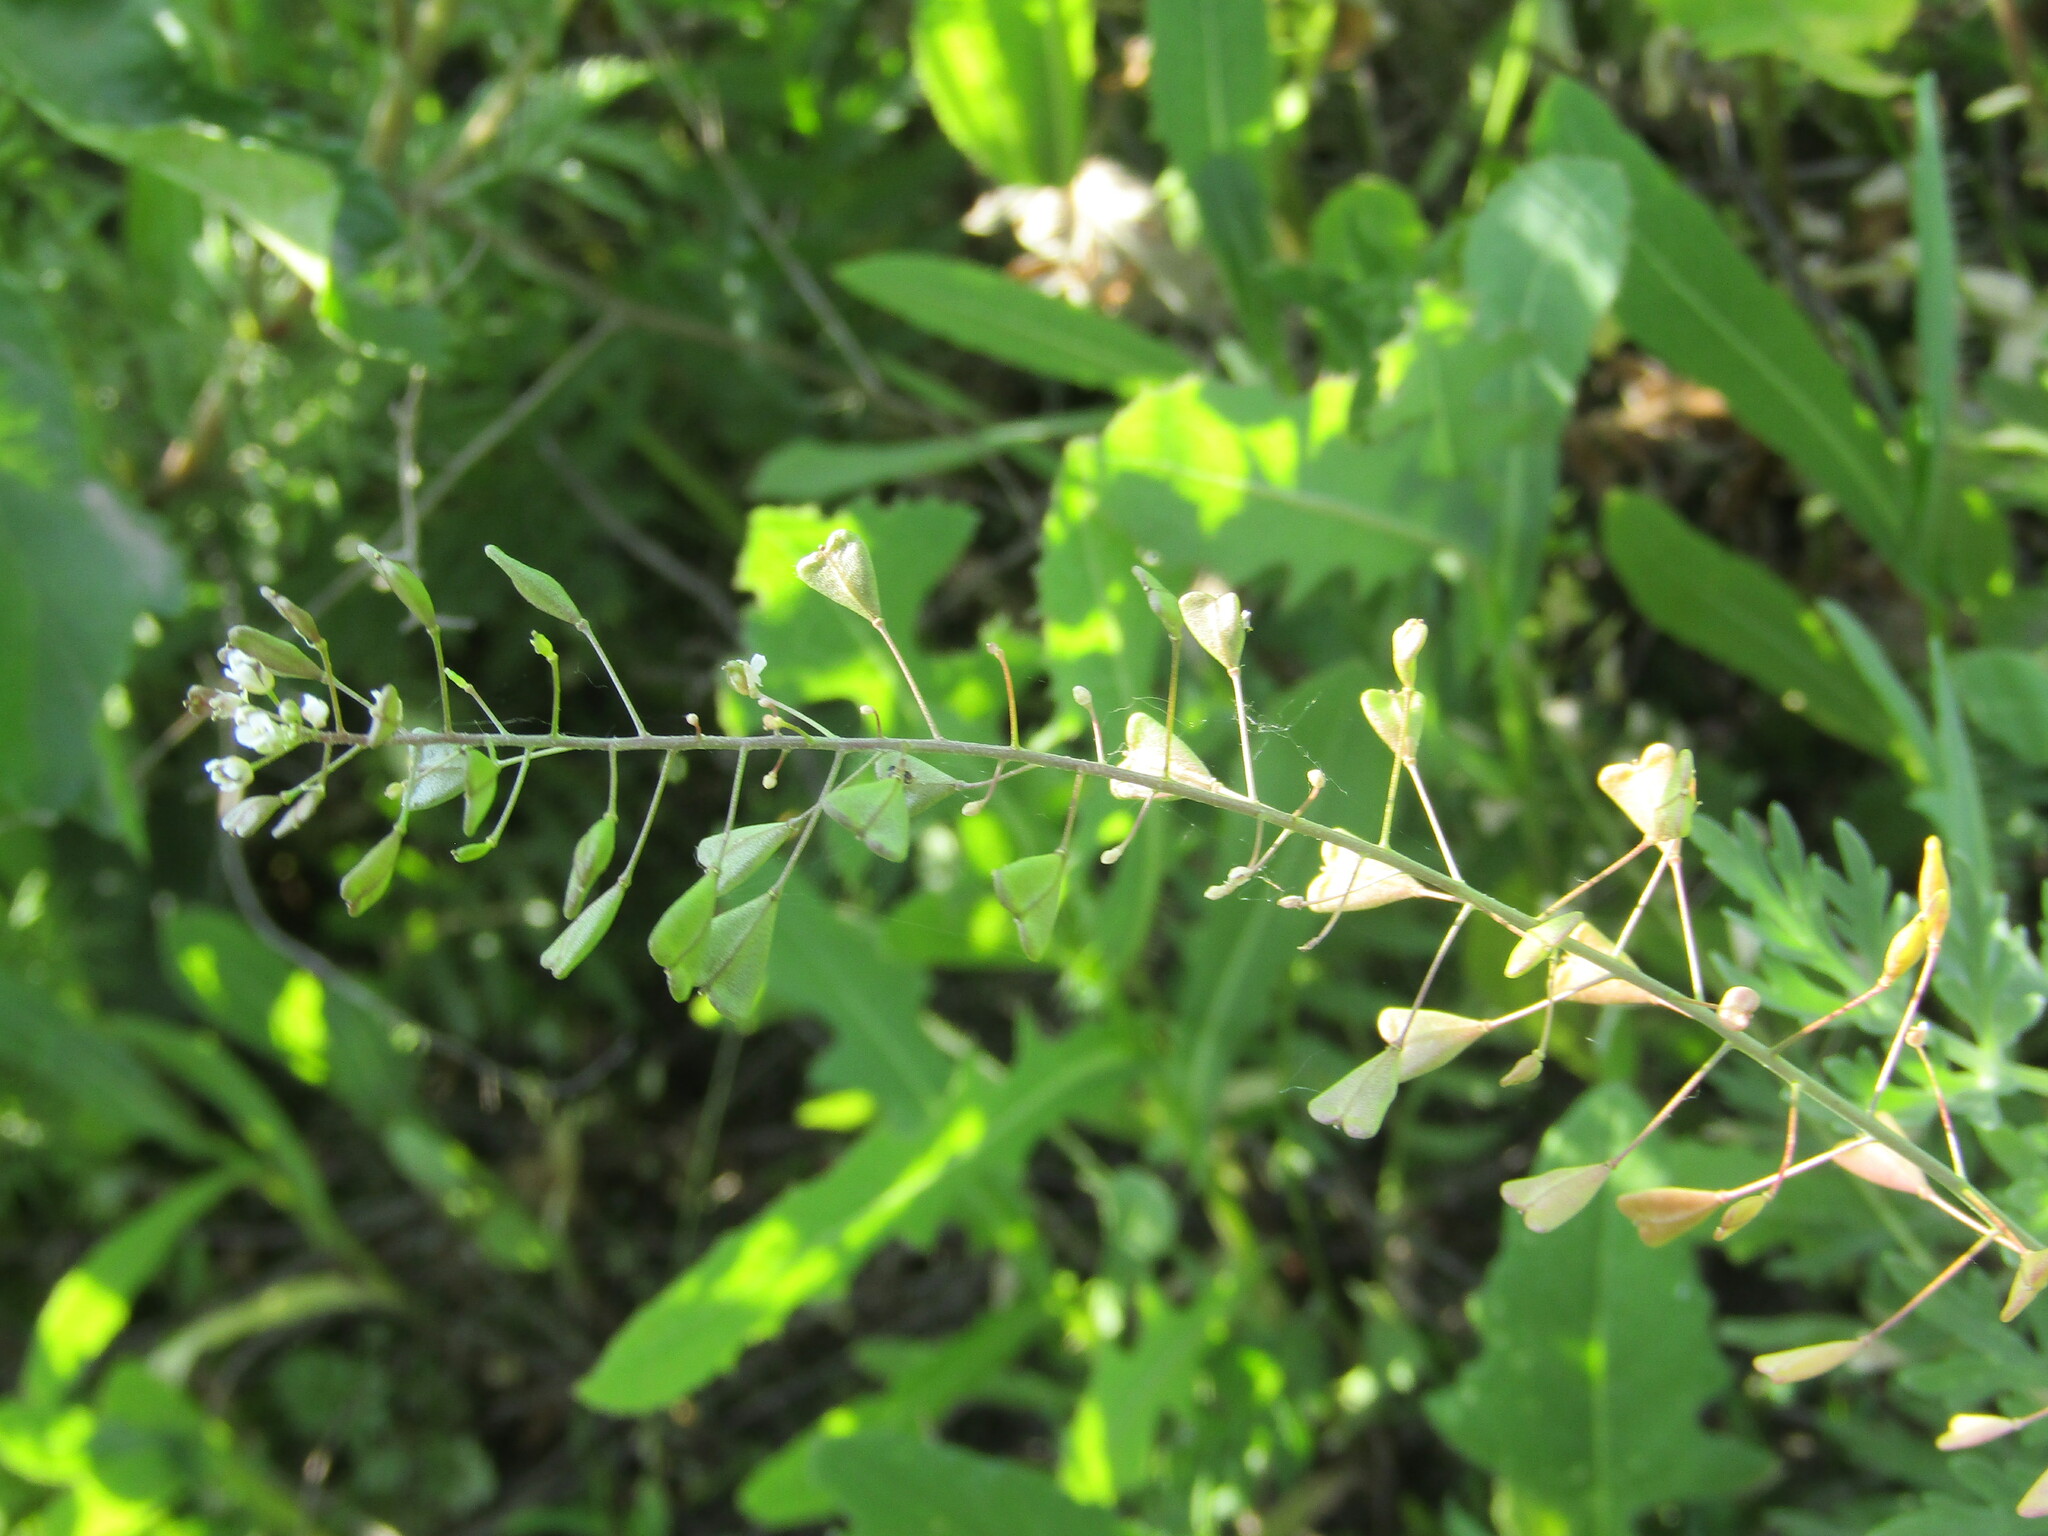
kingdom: Plantae
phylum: Tracheophyta
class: Magnoliopsida
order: Brassicales
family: Brassicaceae
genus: Capsella
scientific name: Capsella bursa-pastoris
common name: Shepherd's purse
